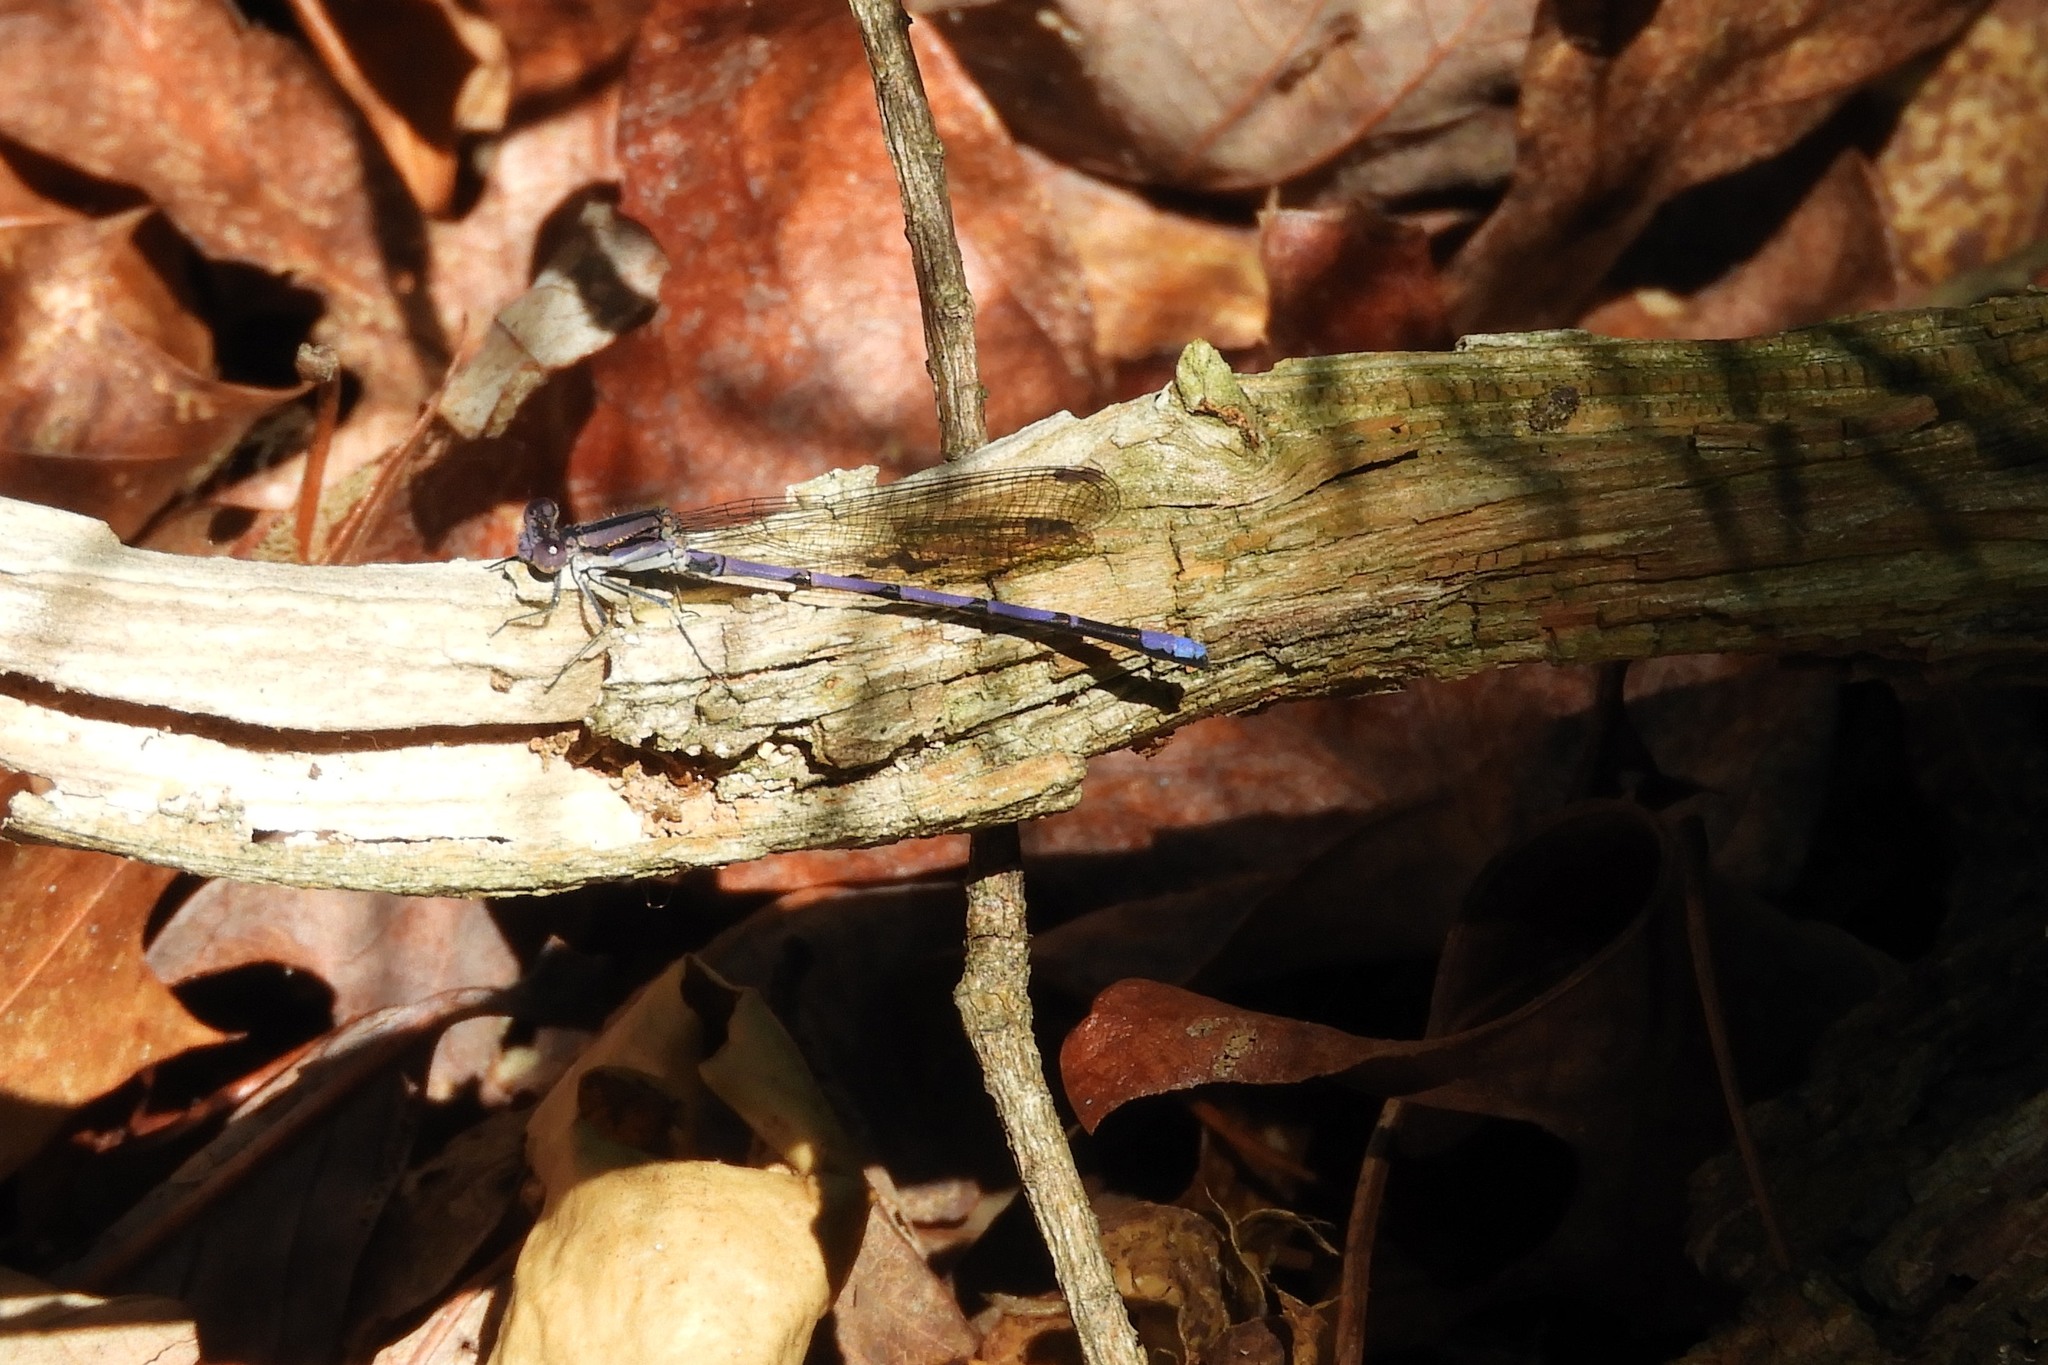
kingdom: Animalia
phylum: Arthropoda
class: Insecta
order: Odonata
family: Coenagrionidae
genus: Argia
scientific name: Argia fumipennis
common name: Variable dancer
